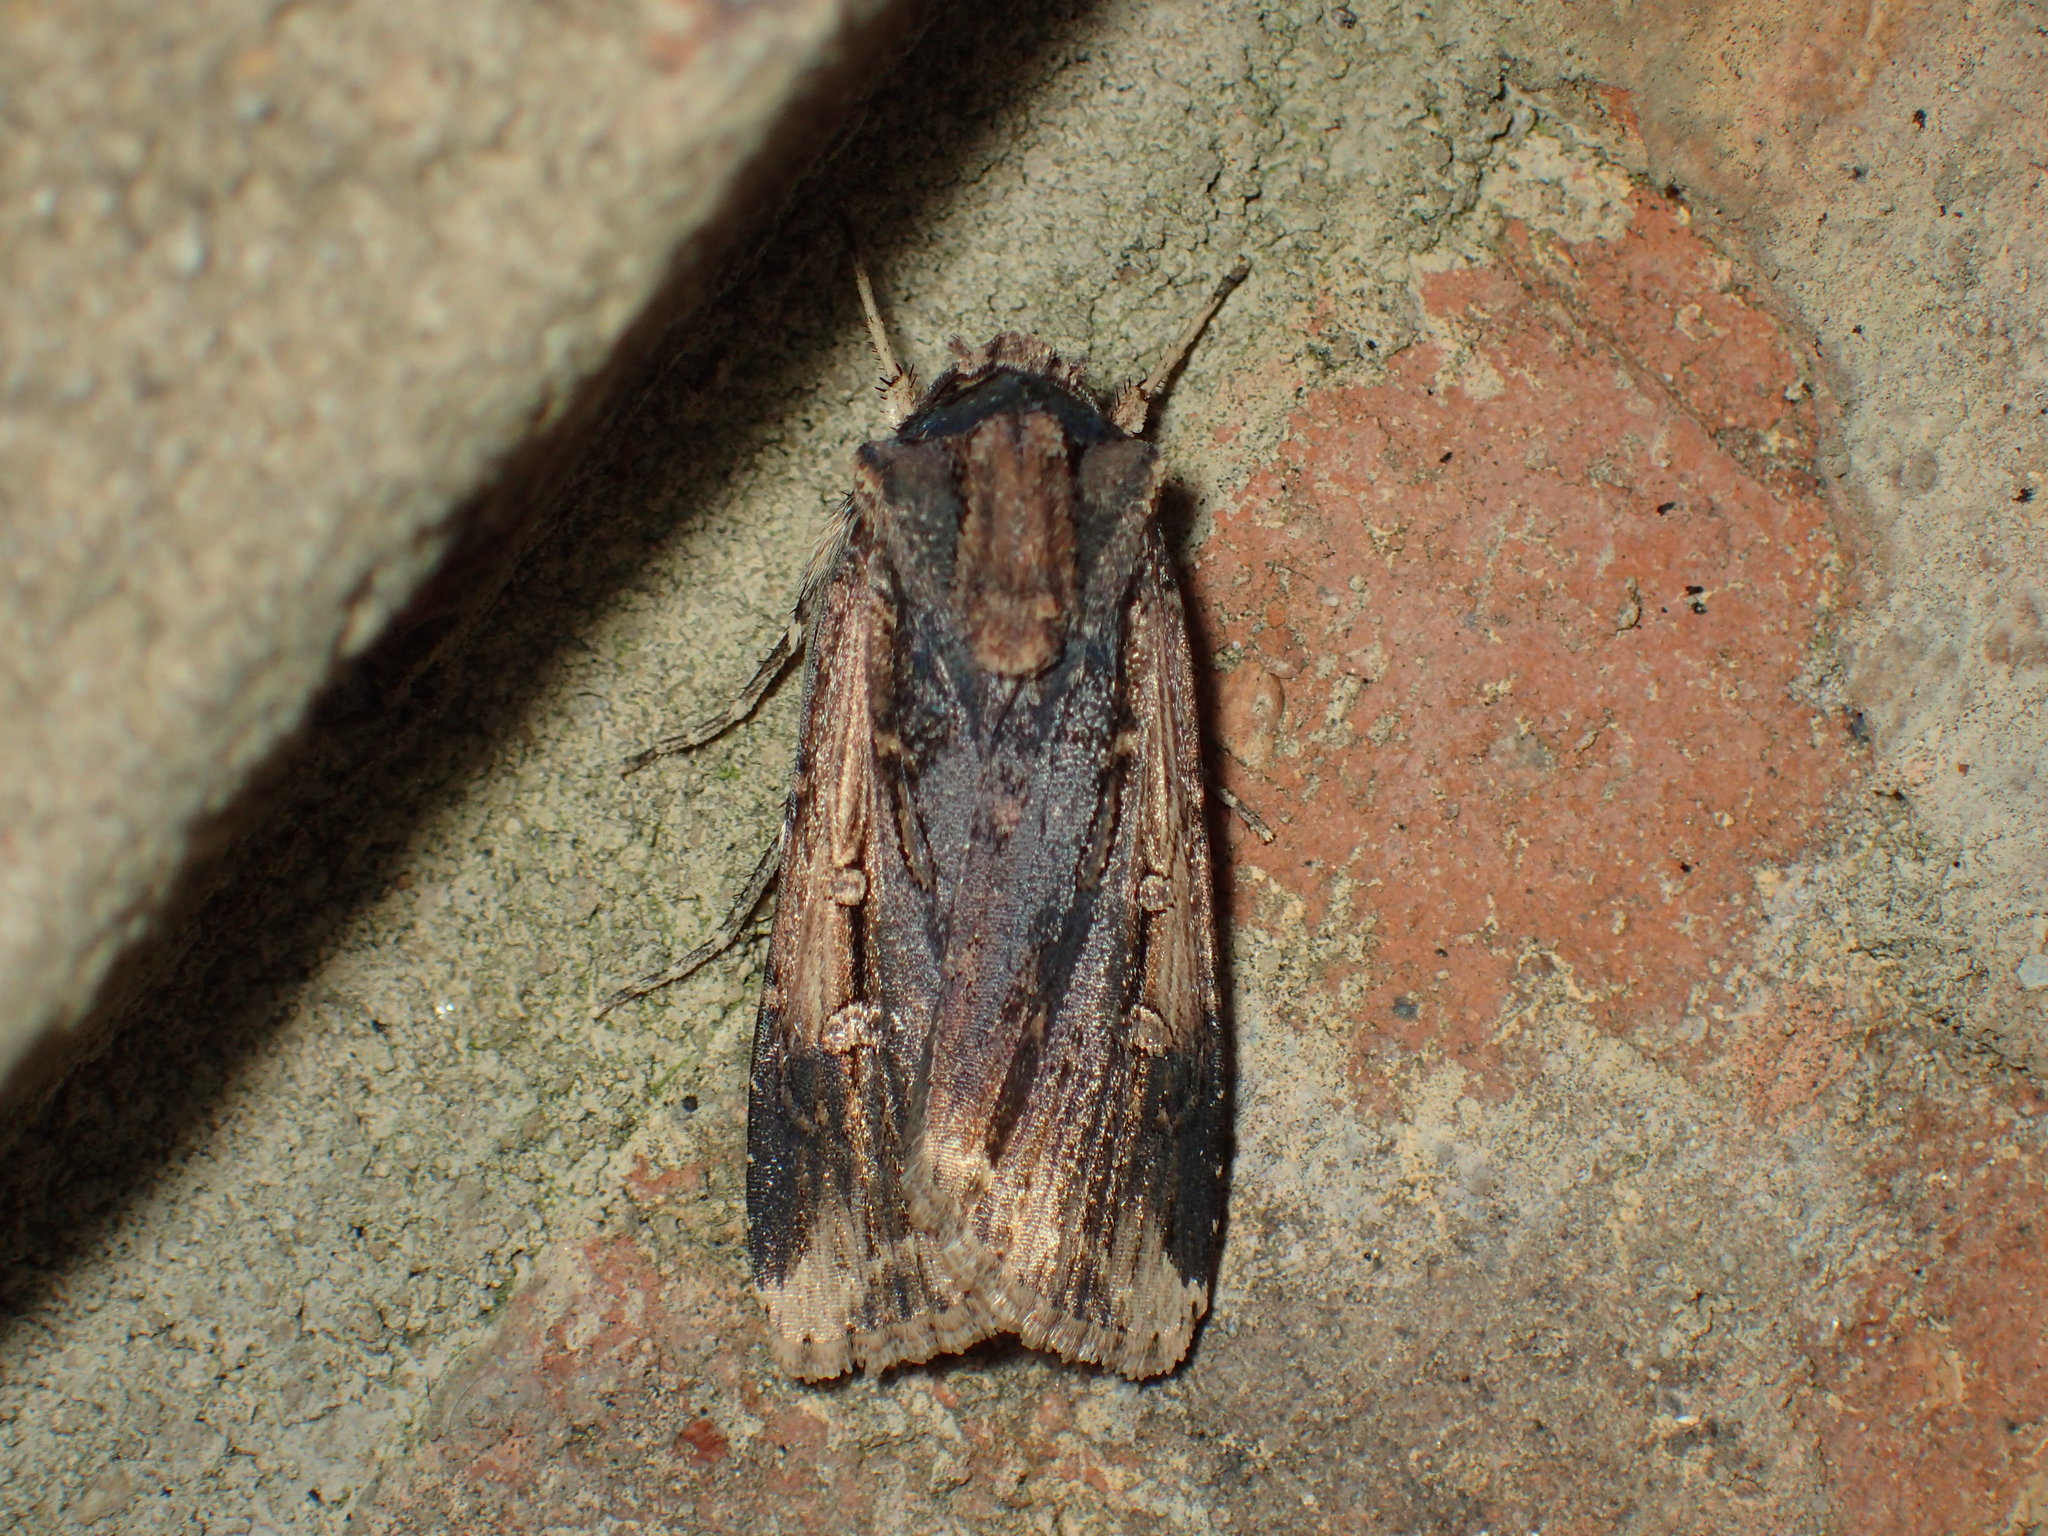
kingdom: Animalia
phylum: Arthropoda
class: Insecta
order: Lepidoptera
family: Noctuidae
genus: Feltia
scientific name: Feltia subterranea
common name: Granulate cutworm
